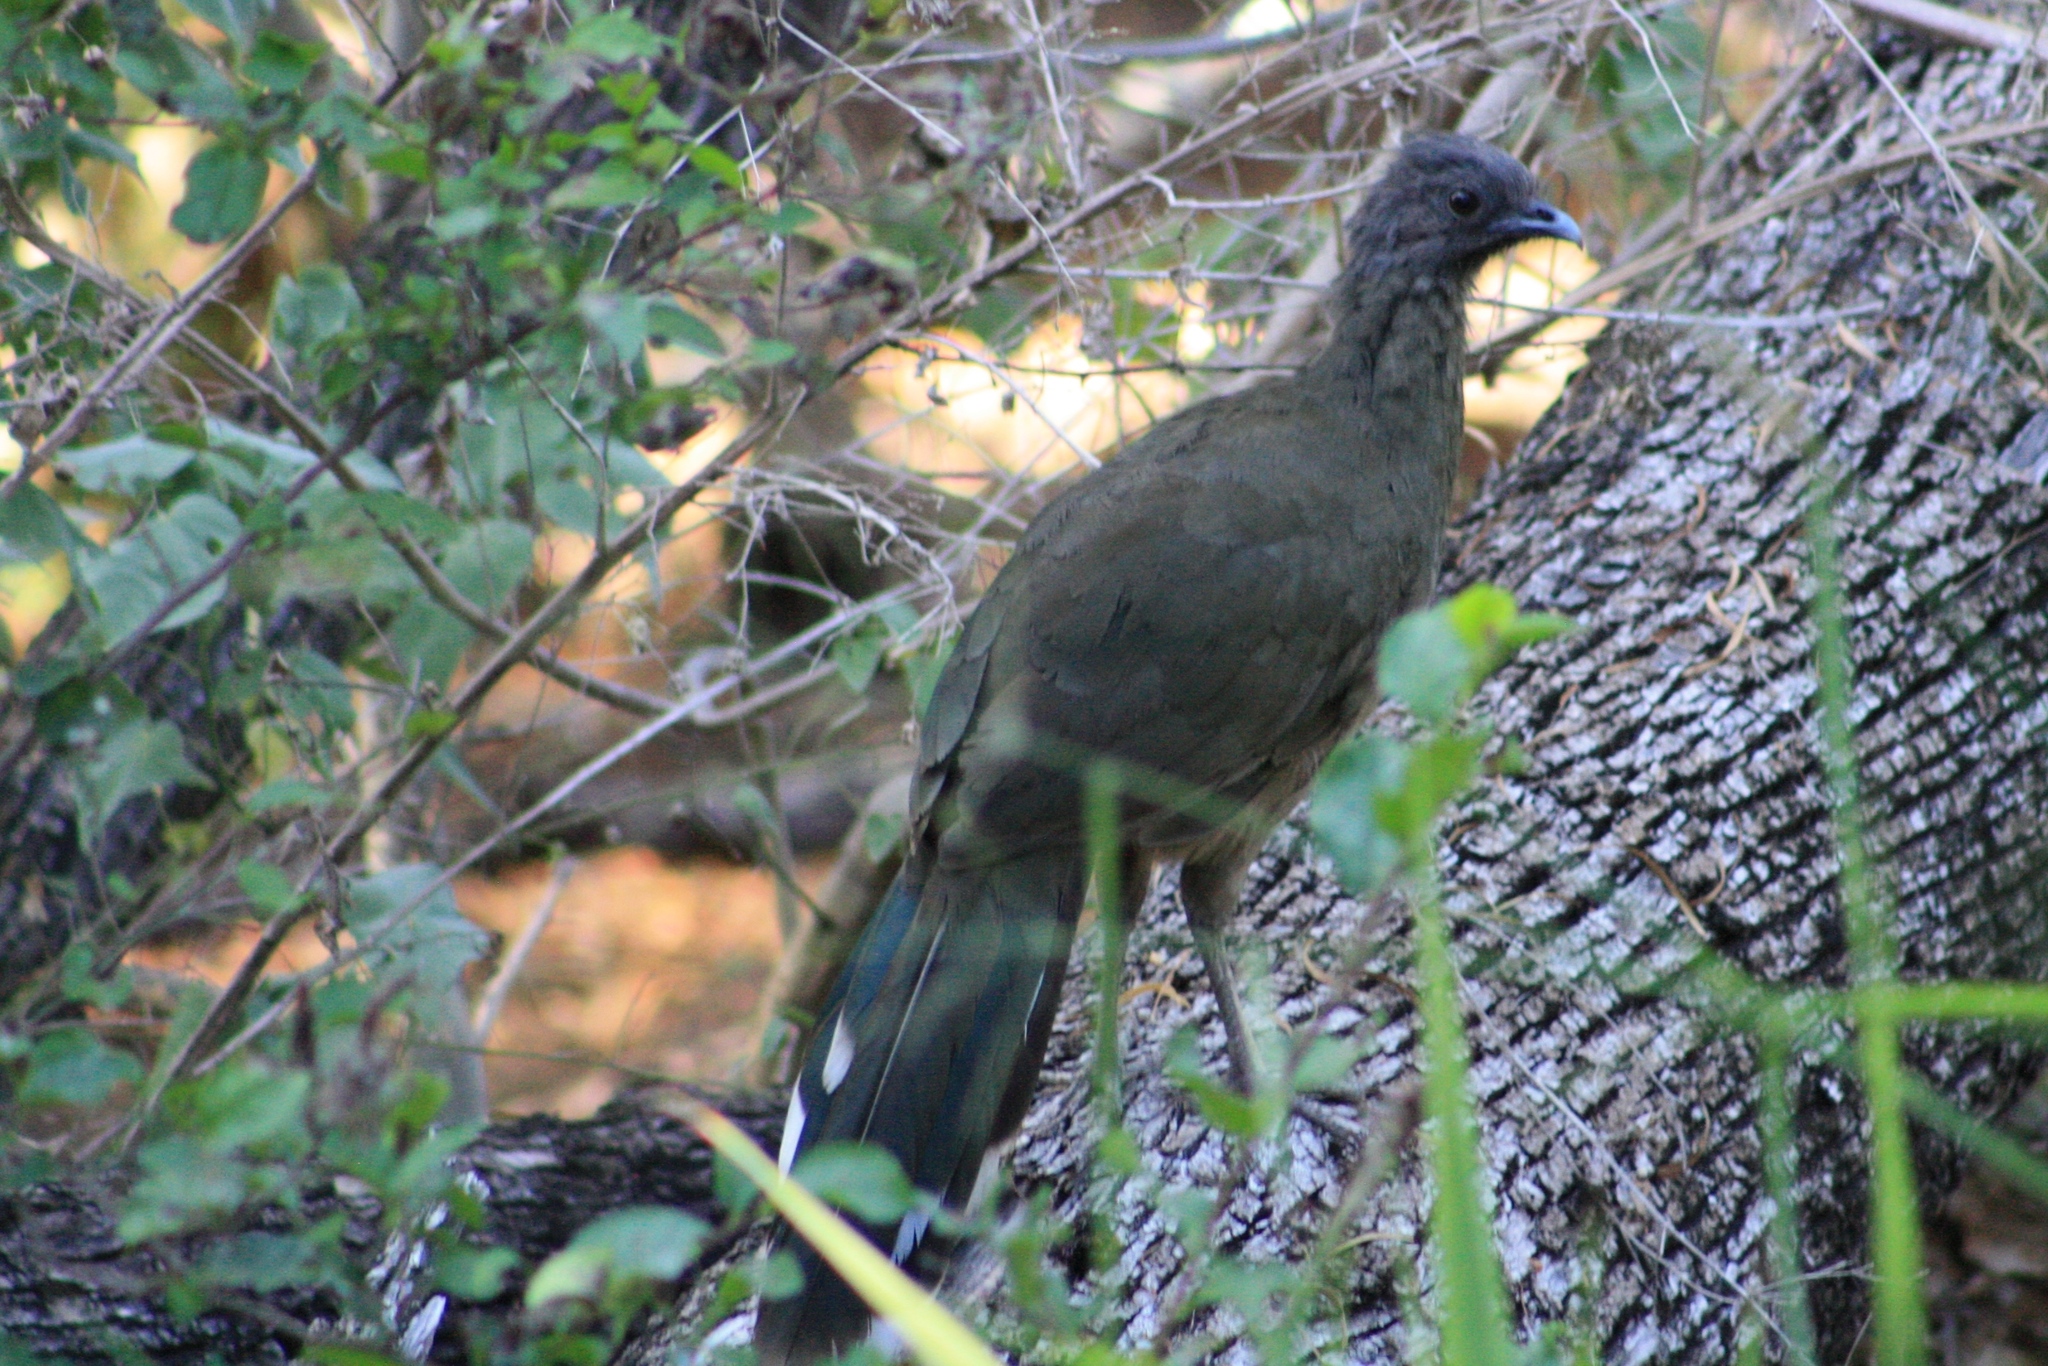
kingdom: Animalia
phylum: Chordata
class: Aves
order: Galliformes
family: Cracidae
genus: Ortalis
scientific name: Ortalis vetula
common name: Plain chachalaca
